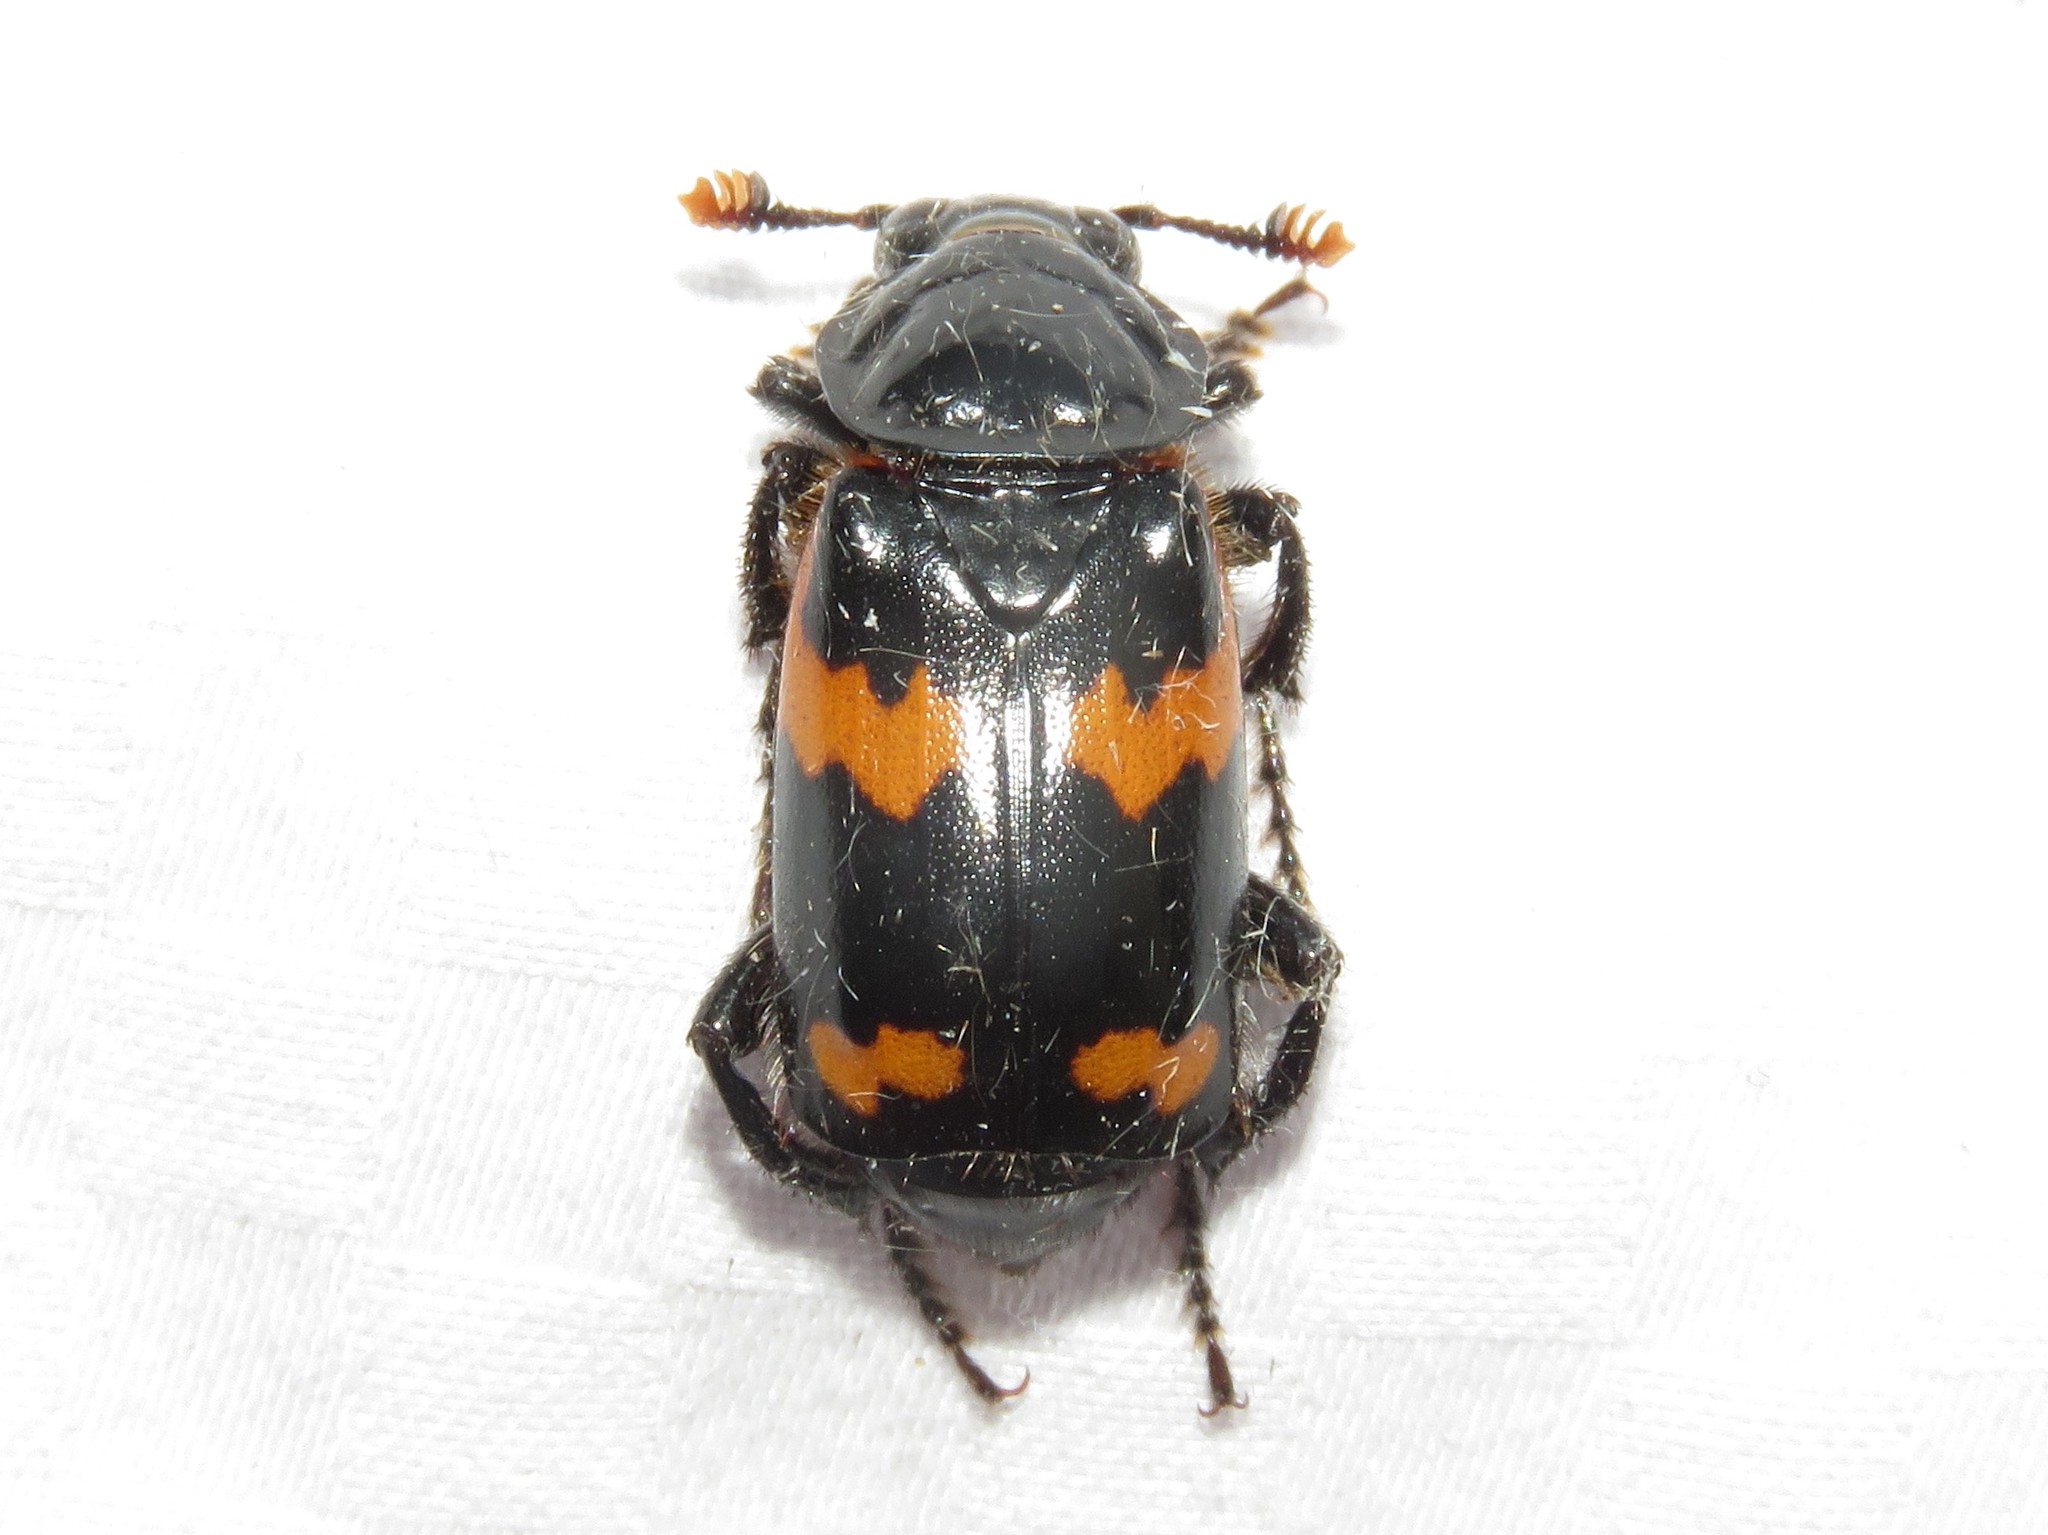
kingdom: Animalia
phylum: Arthropoda
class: Insecta
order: Coleoptera
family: Staphylinidae
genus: Nicrophorus
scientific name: Nicrophorus sayi
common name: Say's burying beetle
